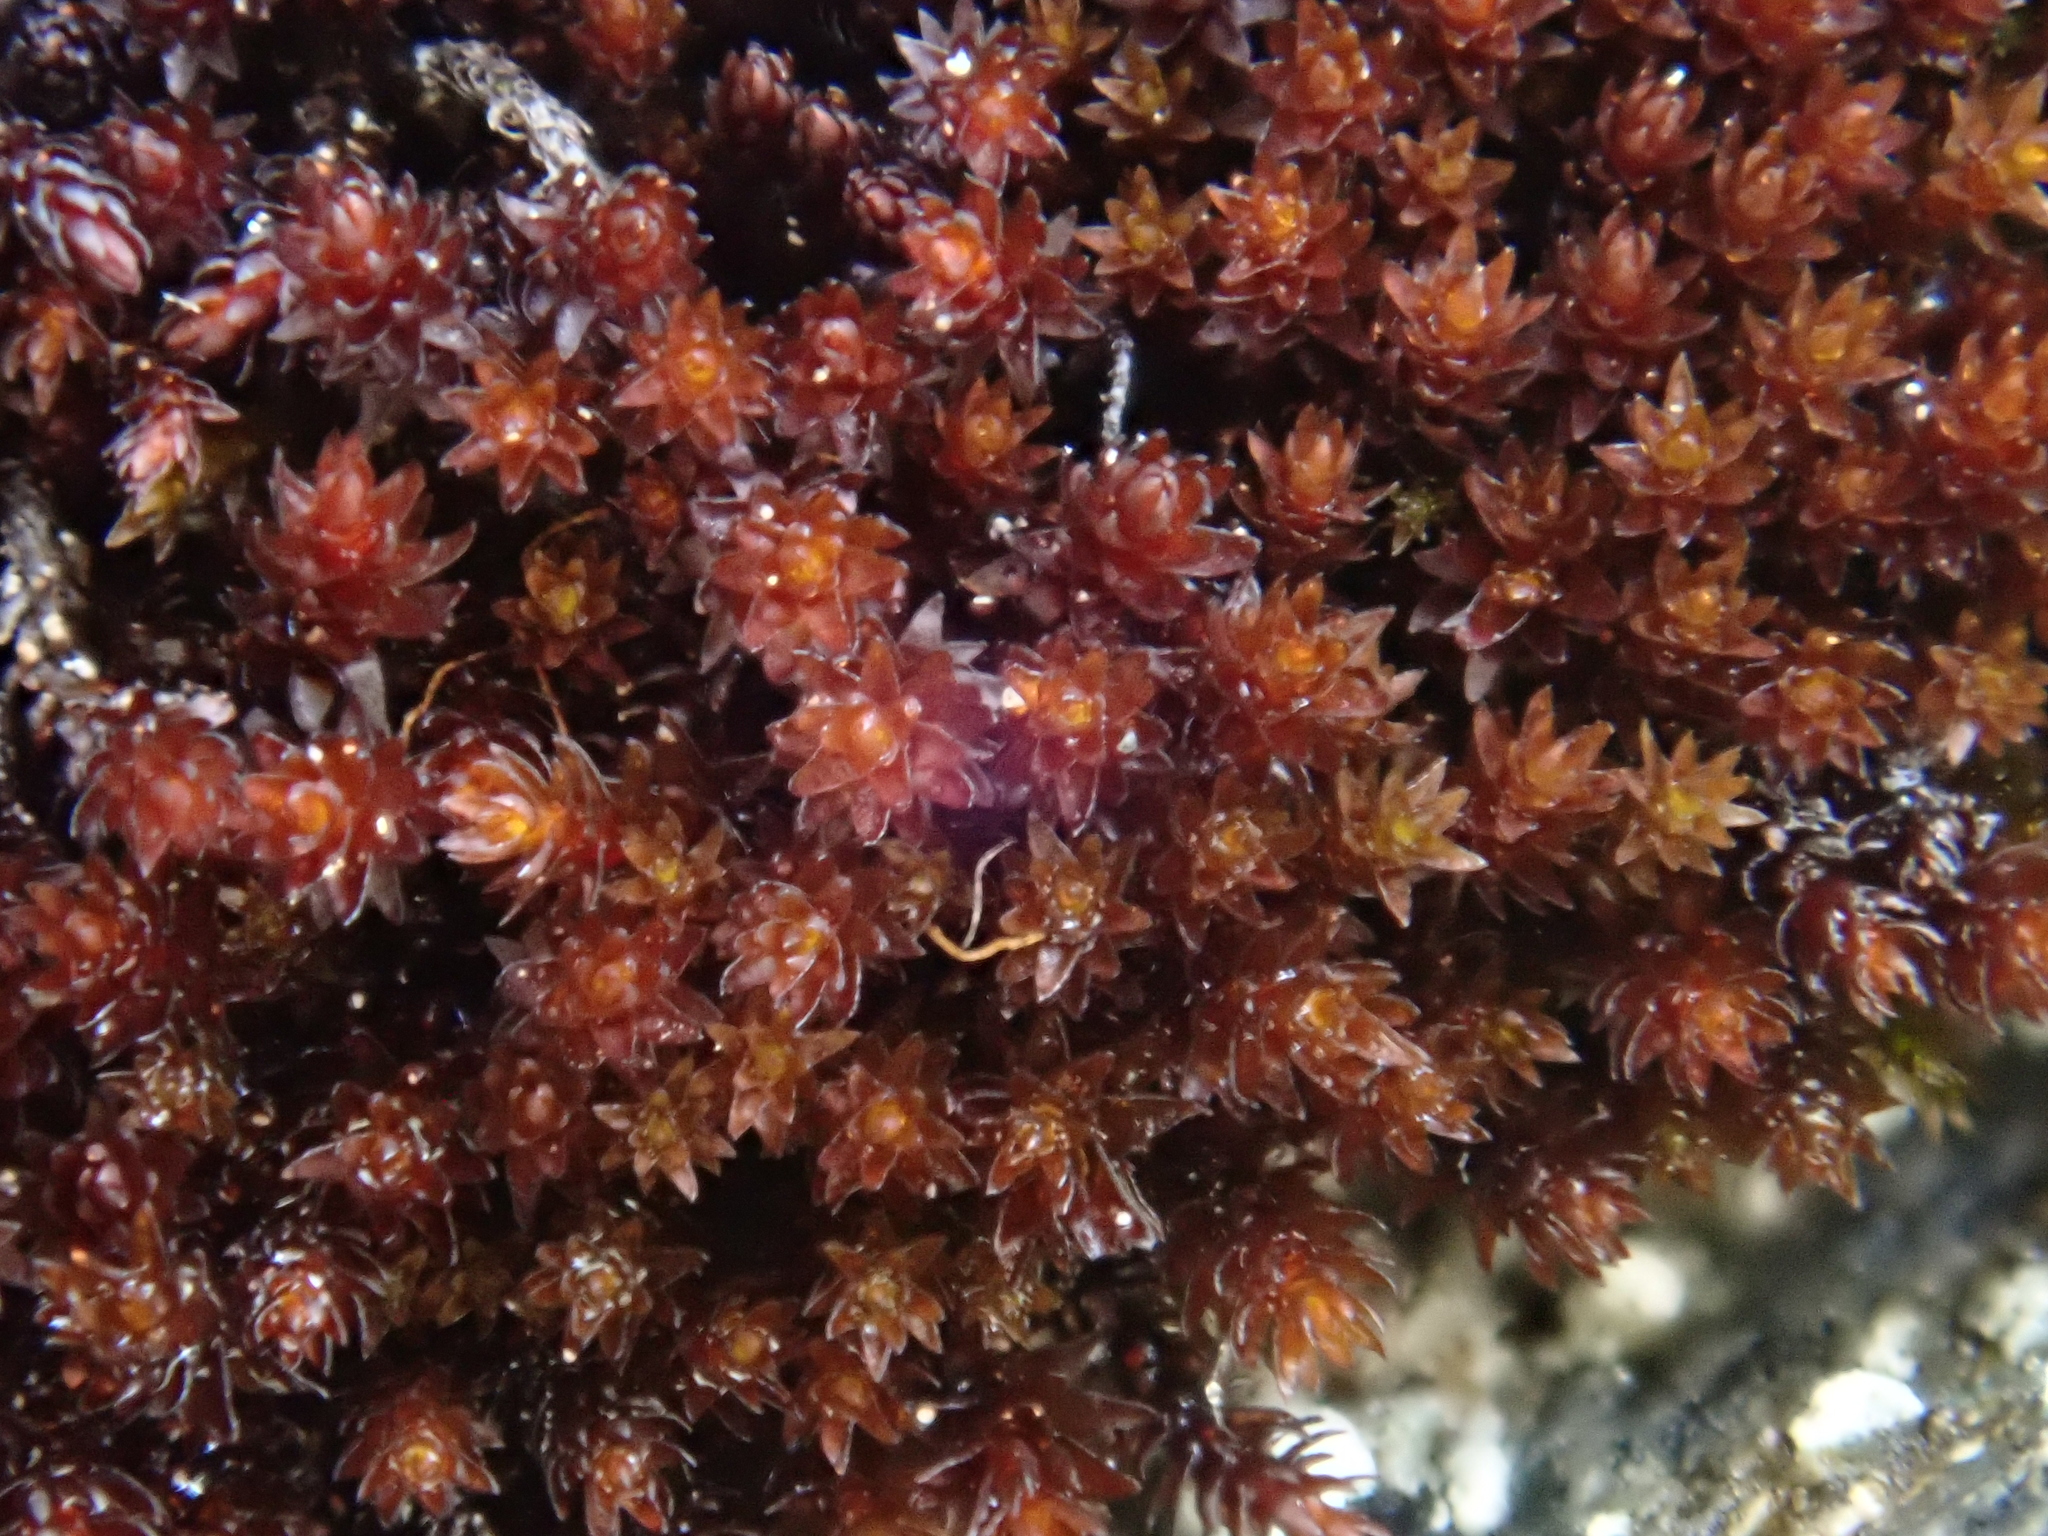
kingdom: Plantae
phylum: Bryophyta
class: Andreaeopsida
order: Andreaeales
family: Andreaeaceae
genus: Andreaea
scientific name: Andreaea rupestris
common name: Black rock moss
